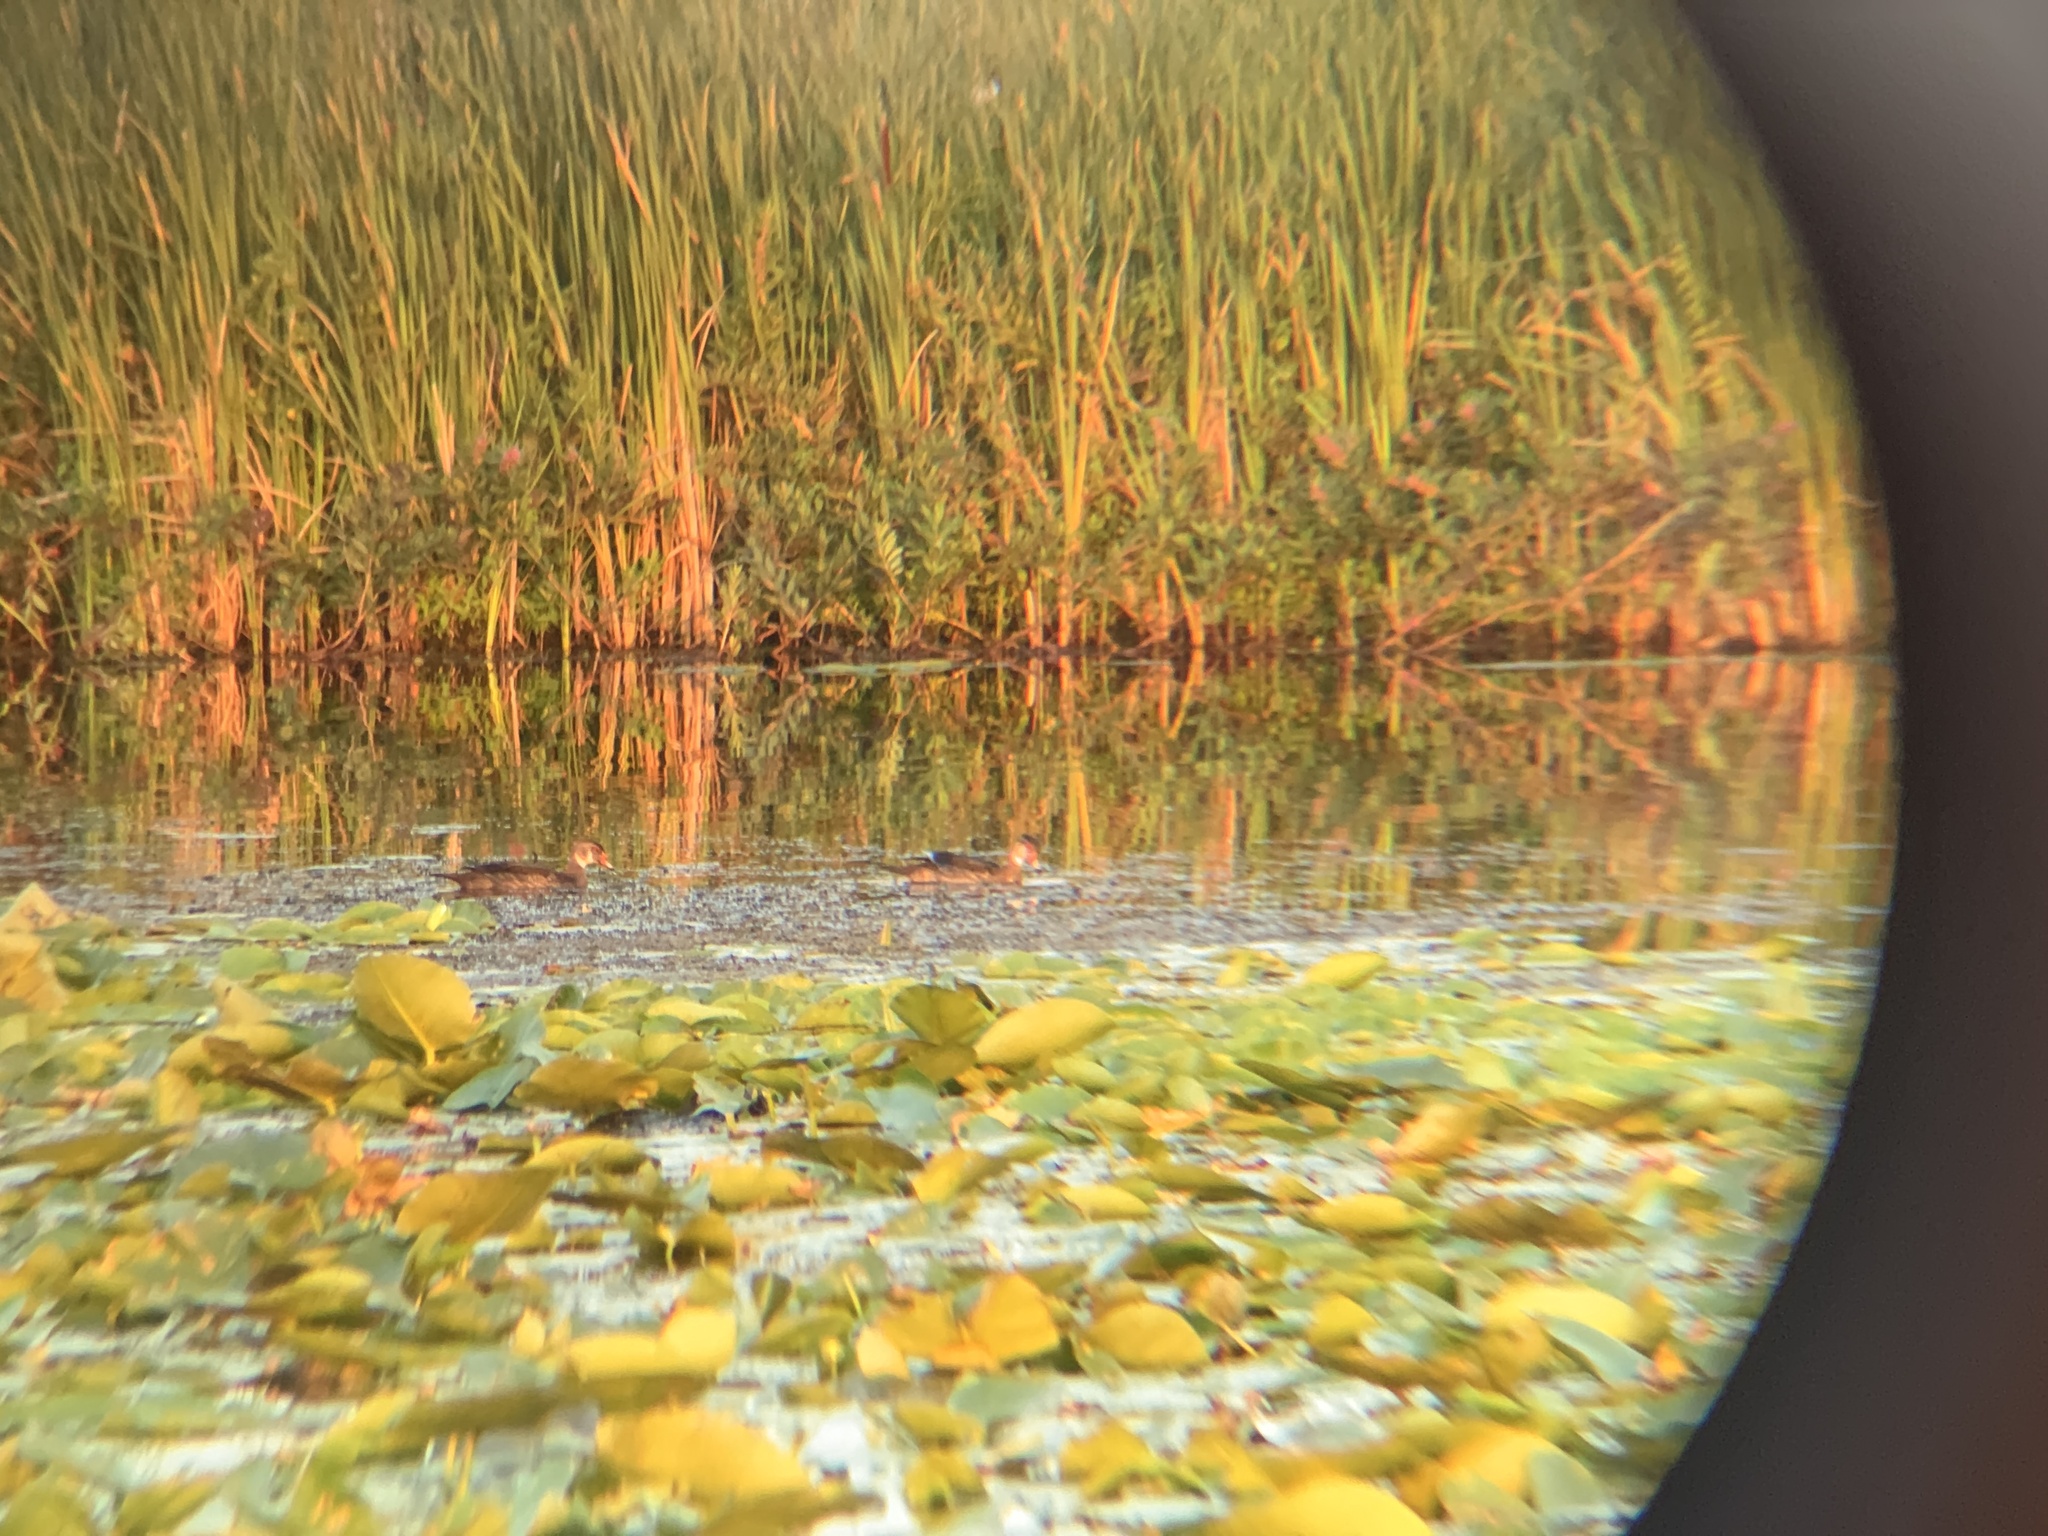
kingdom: Animalia
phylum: Chordata
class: Aves
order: Anseriformes
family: Anatidae
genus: Aix
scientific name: Aix sponsa
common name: Wood duck
